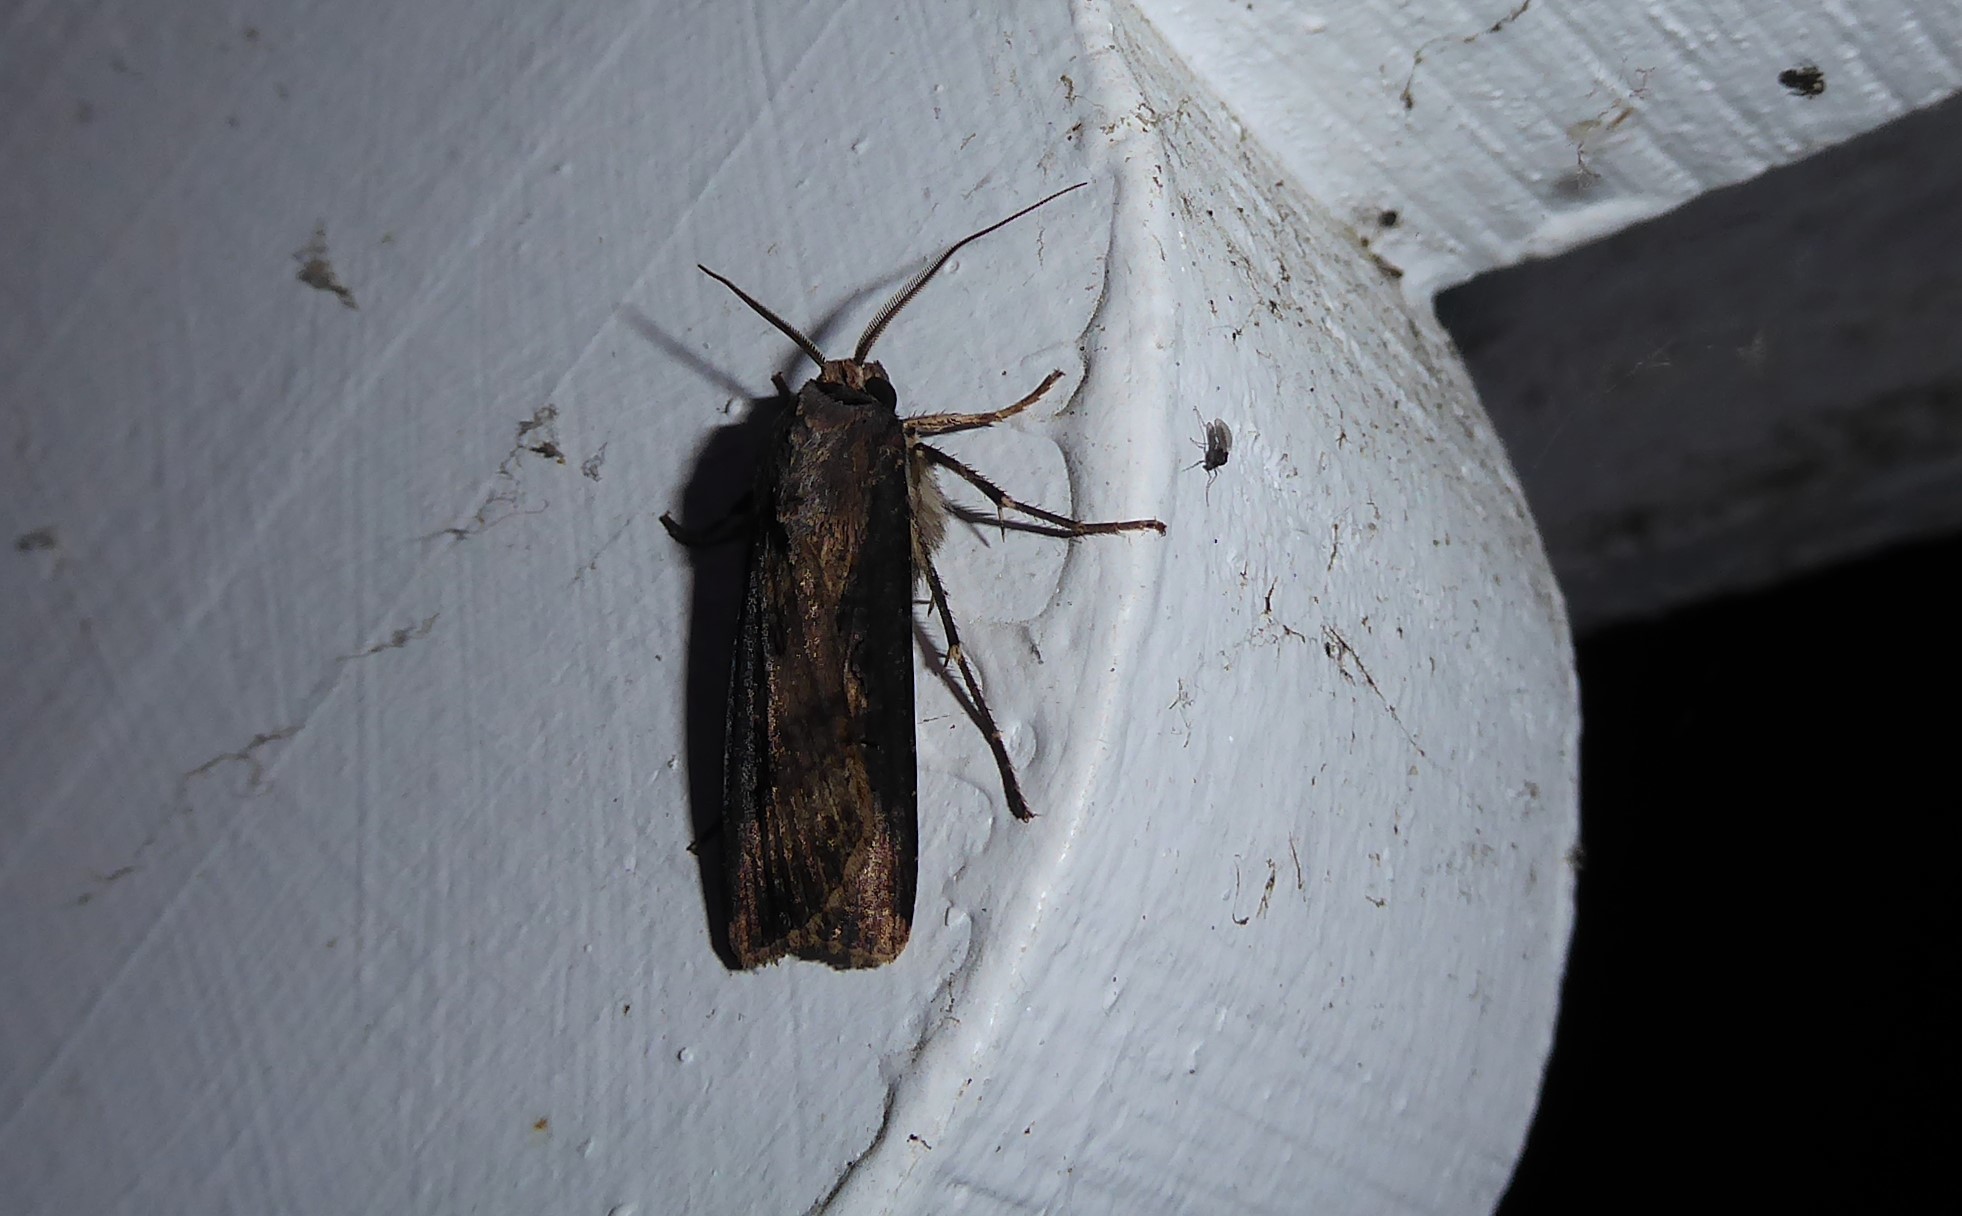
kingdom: Animalia
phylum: Arthropoda
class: Insecta
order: Lepidoptera
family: Noctuidae
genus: Agrotis
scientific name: Agrotis ipsilon
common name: Dark sword-grass
